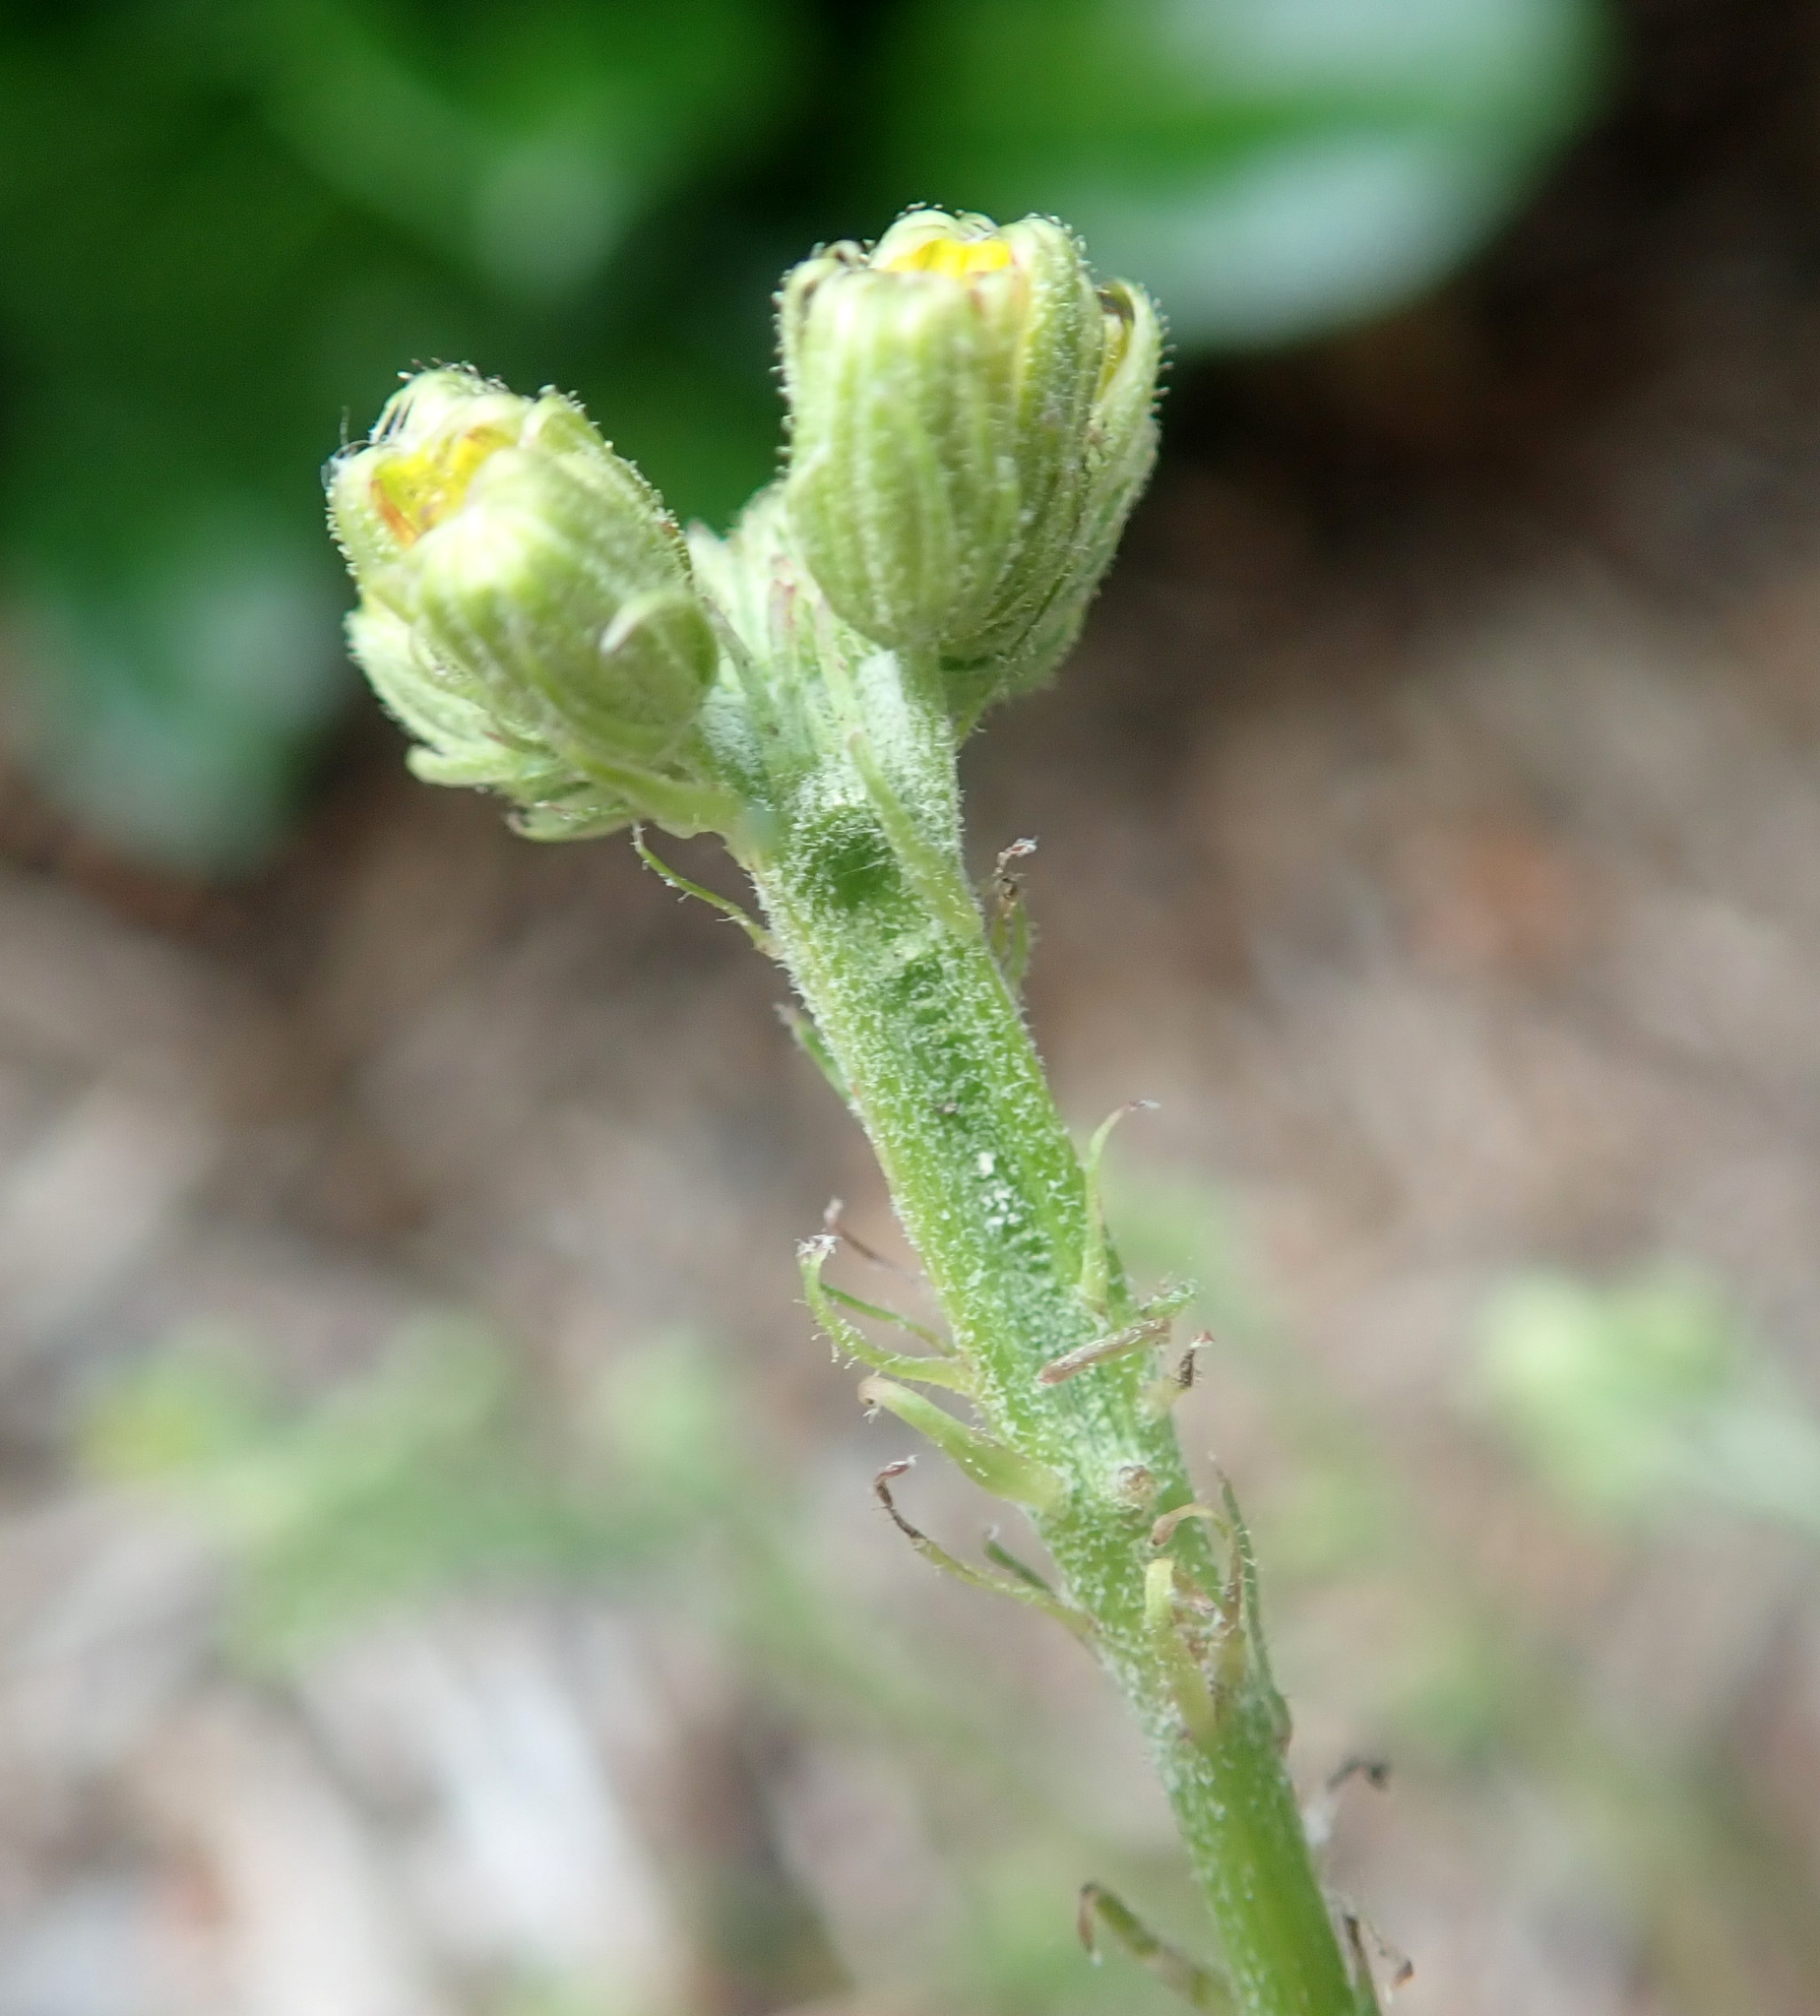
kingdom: Plantae
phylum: Tracheophyta
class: Magnoliopsida
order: Asterales
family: Asteraceae
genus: Crepis
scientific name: Crepis capillaris
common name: Smooth hawksbeard
